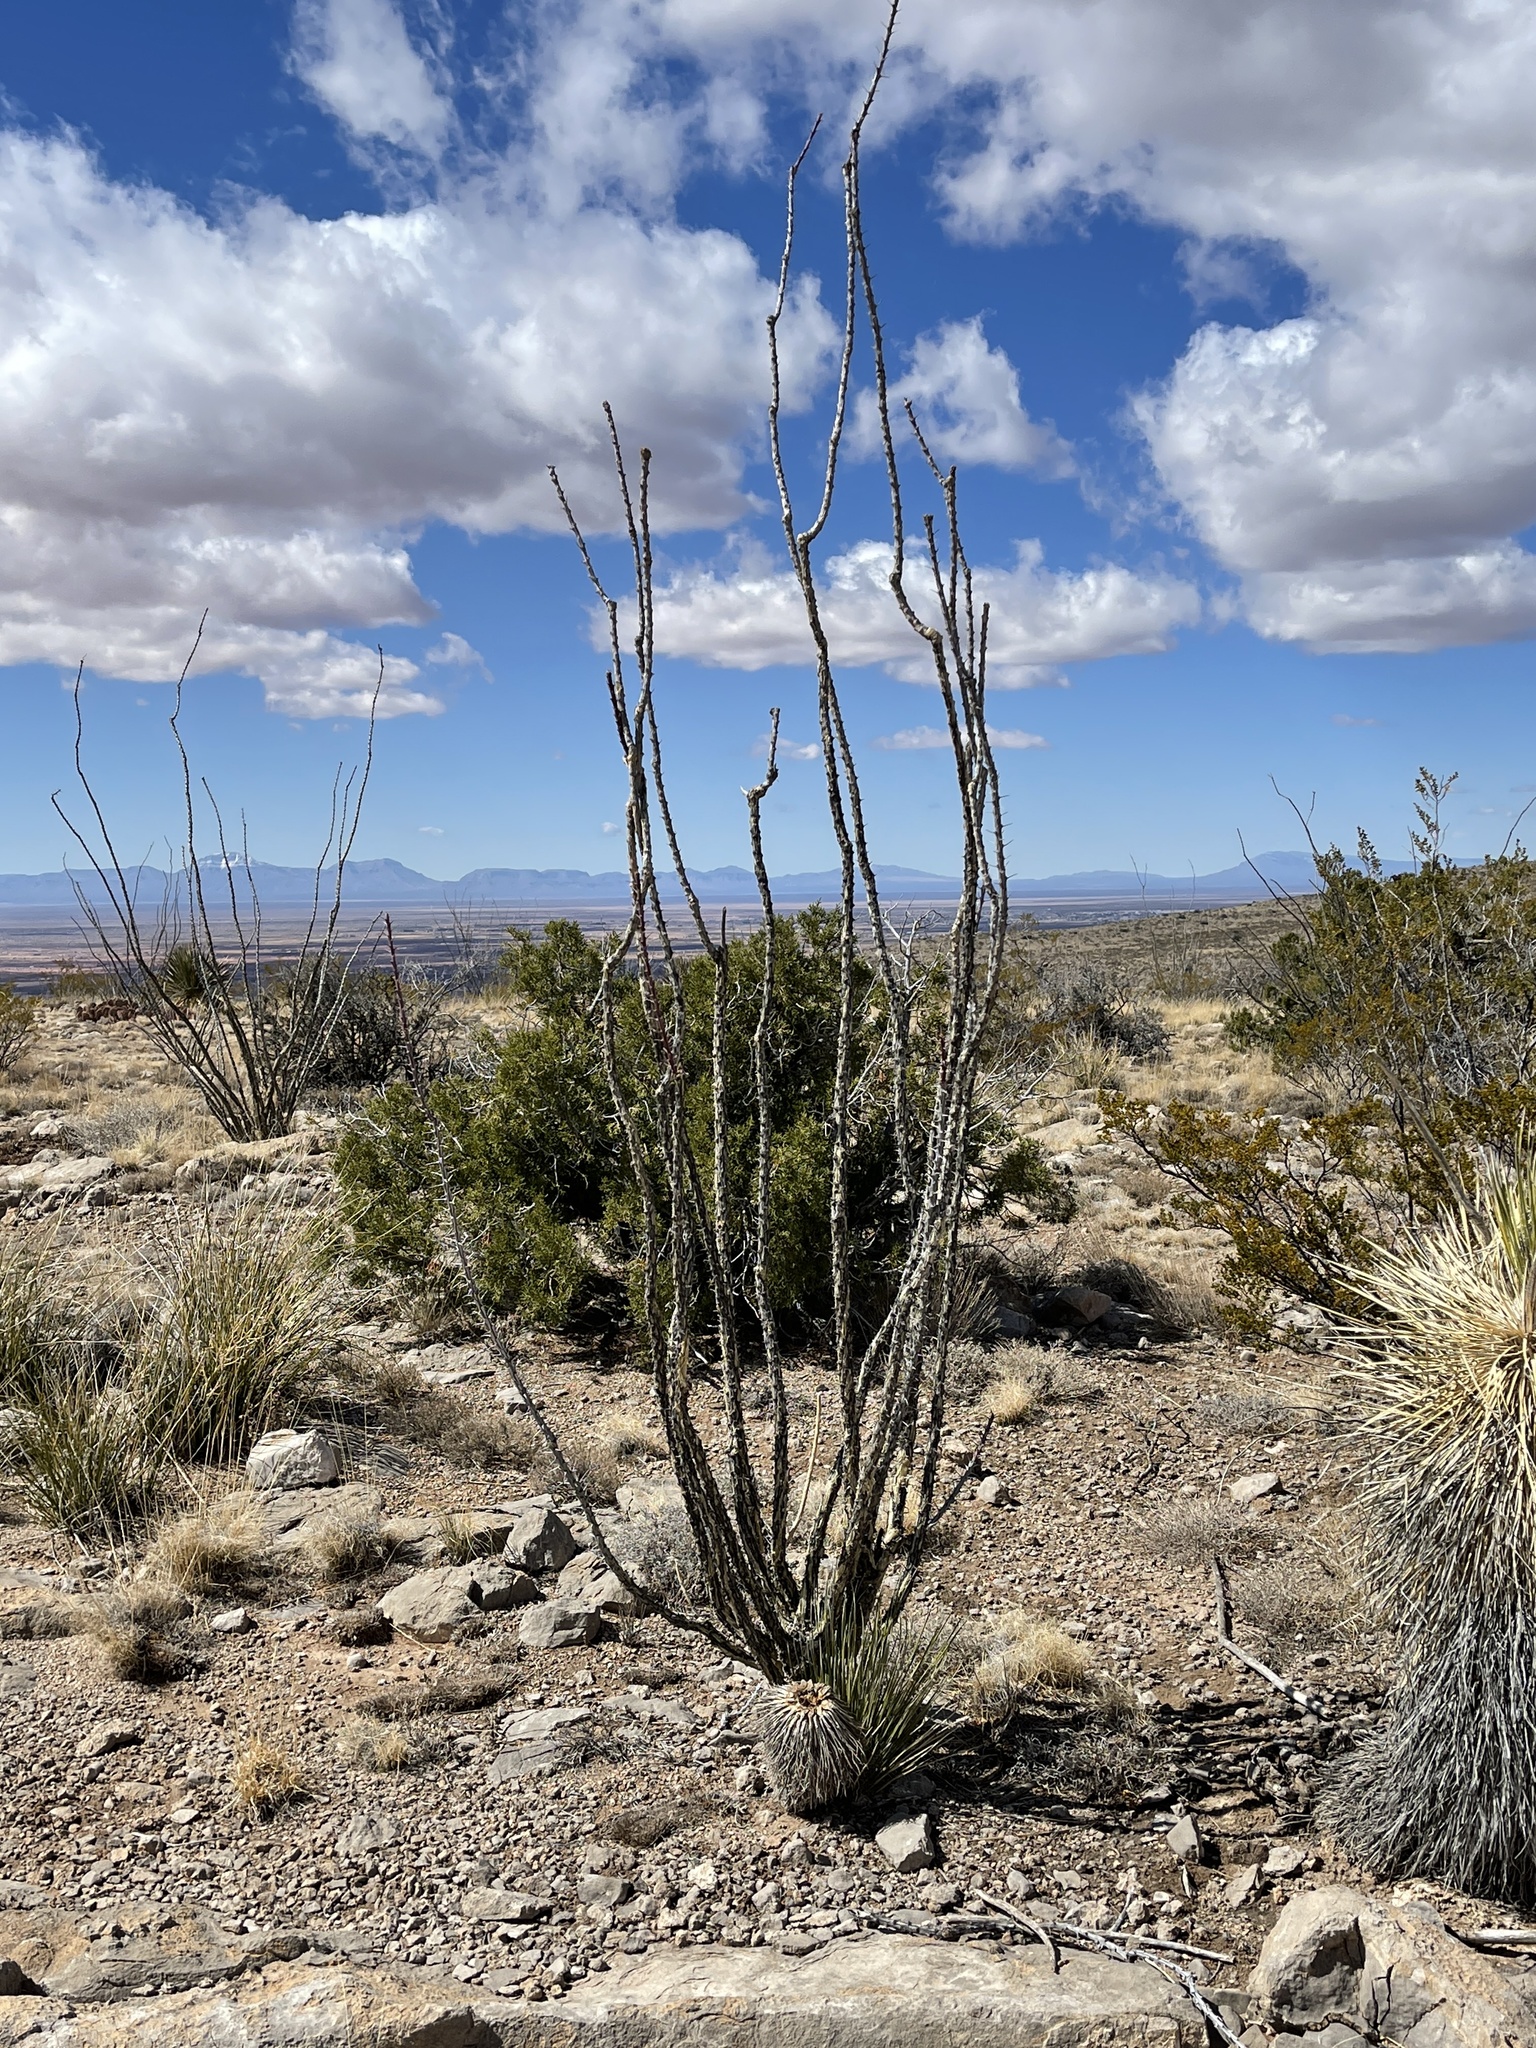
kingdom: Plantae
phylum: Tracheophyta
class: Magnoliopsida
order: Ericales
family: Fouquieriaceae
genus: Fouquieria
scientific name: Fouquieria splendens
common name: Vine-cactus
